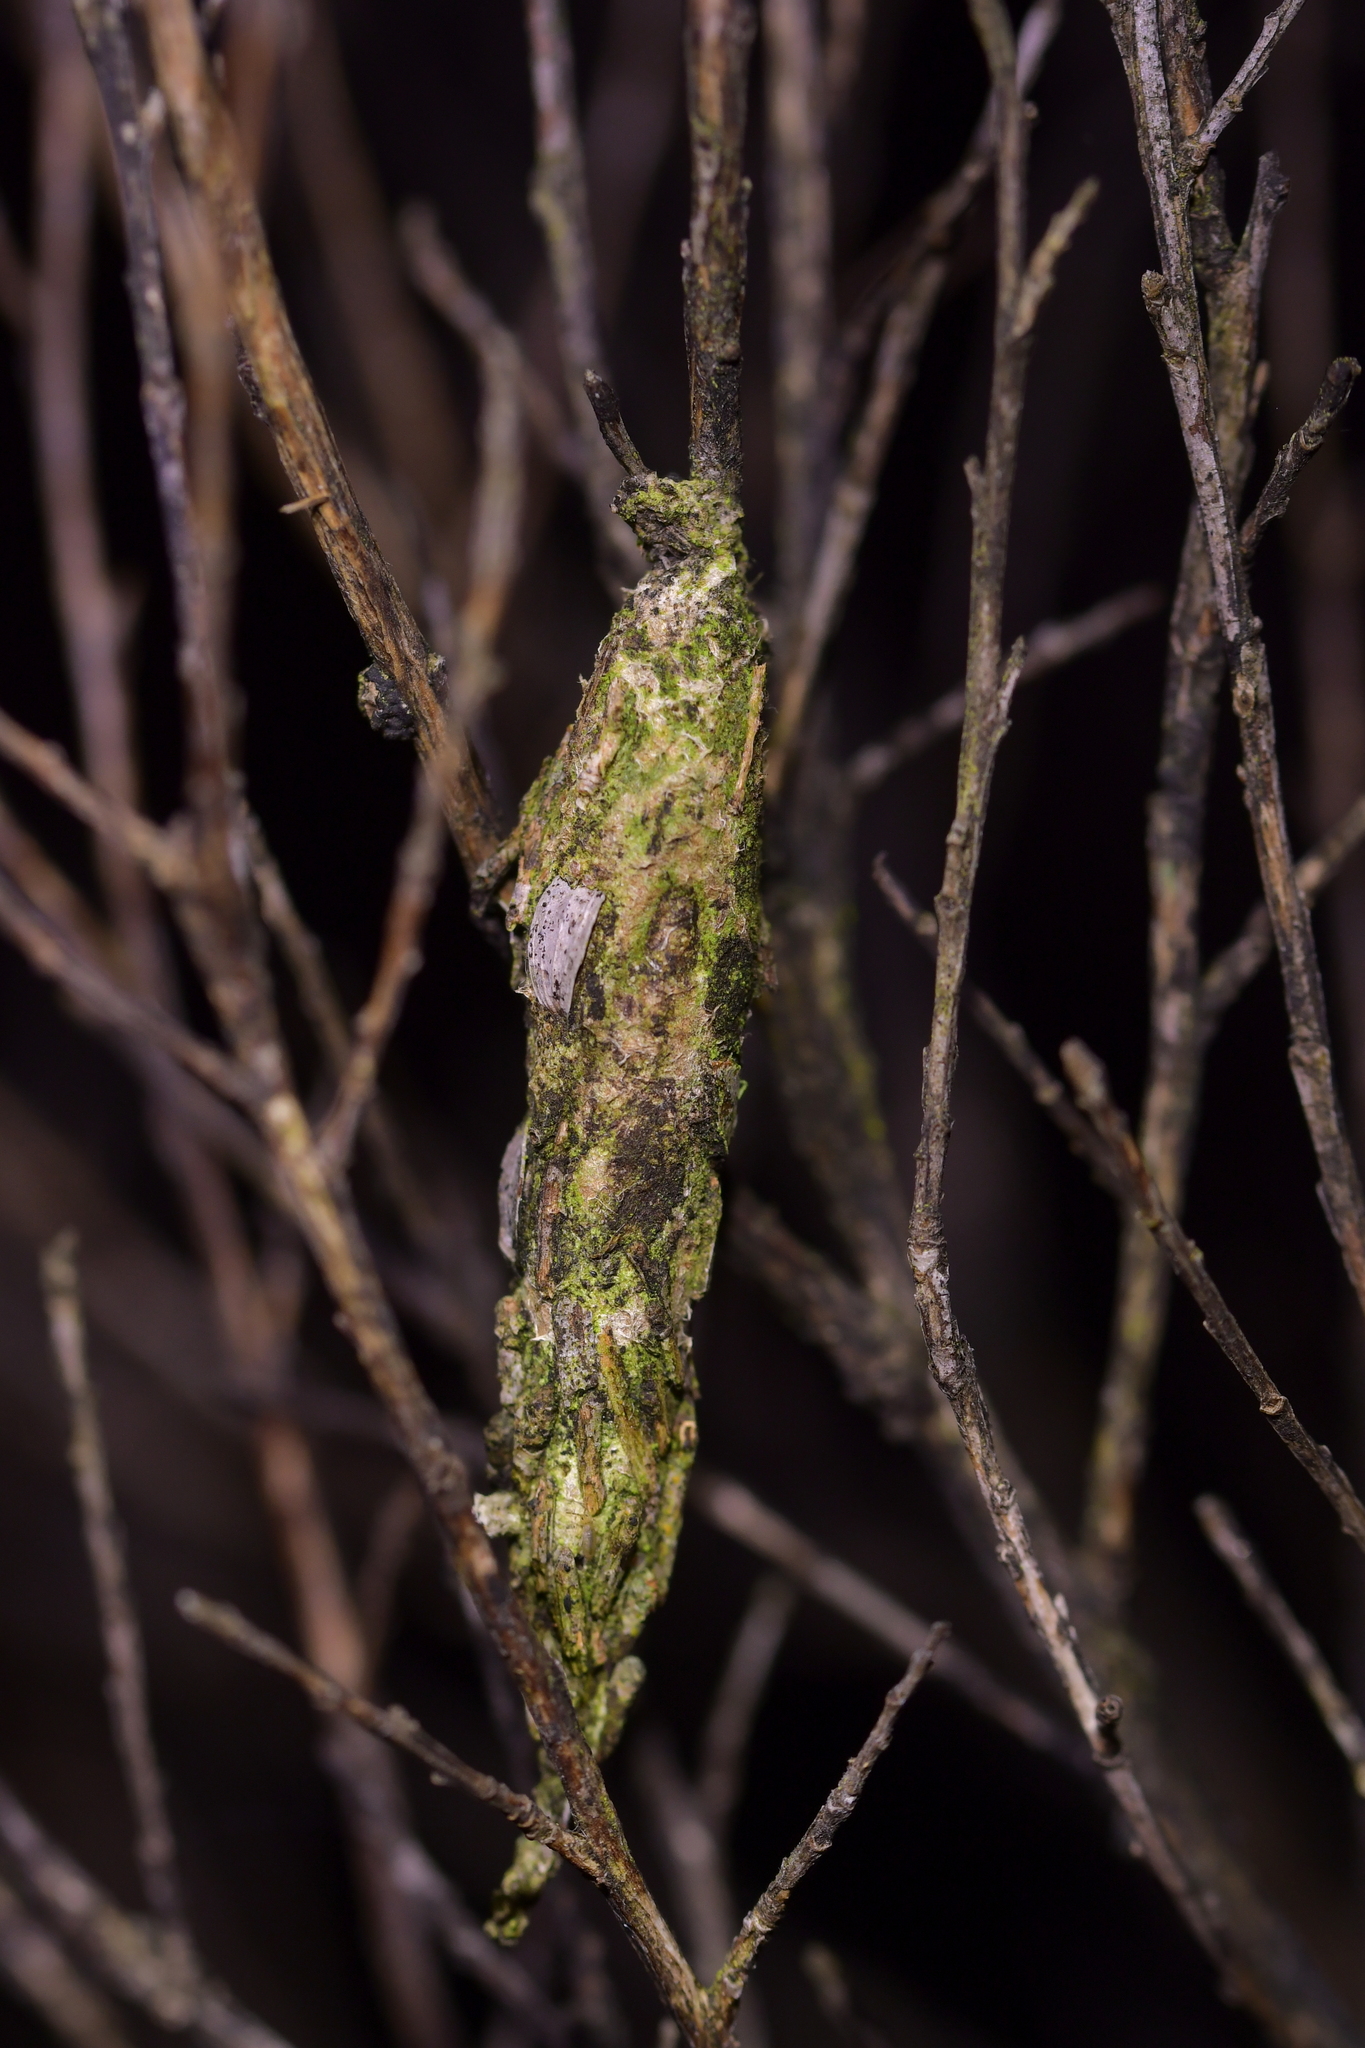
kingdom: Animalia
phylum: Arthropoda
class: Insecta
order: Lepidoptera
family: Psychidae
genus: Liothula
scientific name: Liothula omnivora
